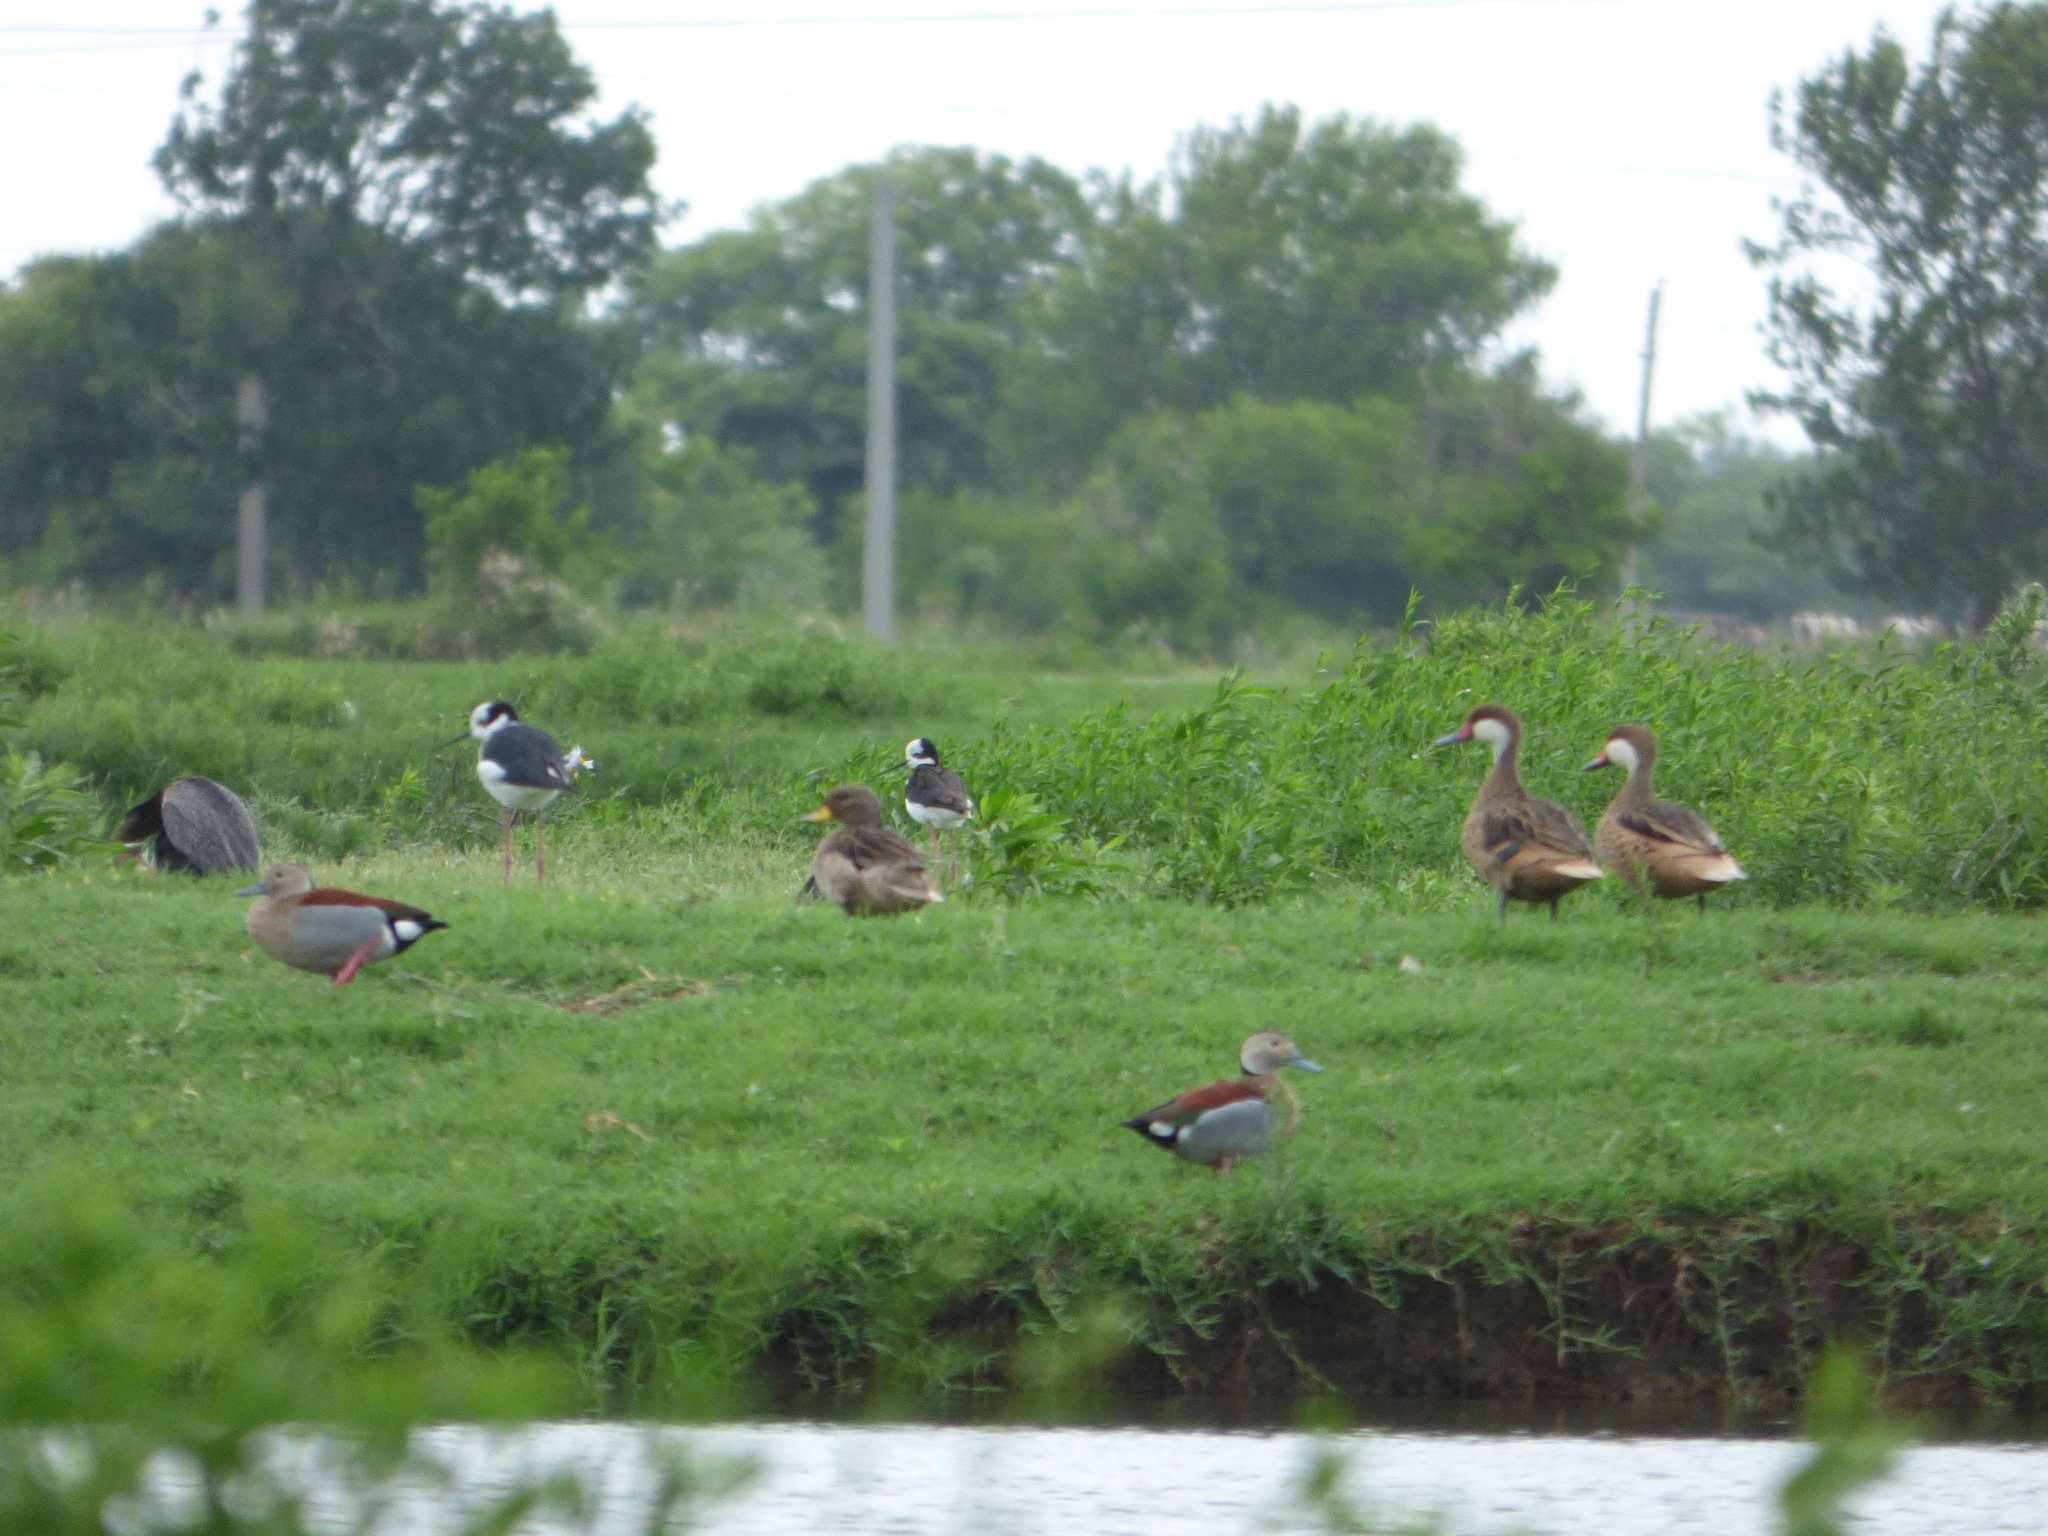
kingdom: Animalia
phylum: Chordata
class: Aves
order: Anseriformes
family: Anatidae
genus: Anas
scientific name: Anas flavirostris
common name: Yellow-billed teal
